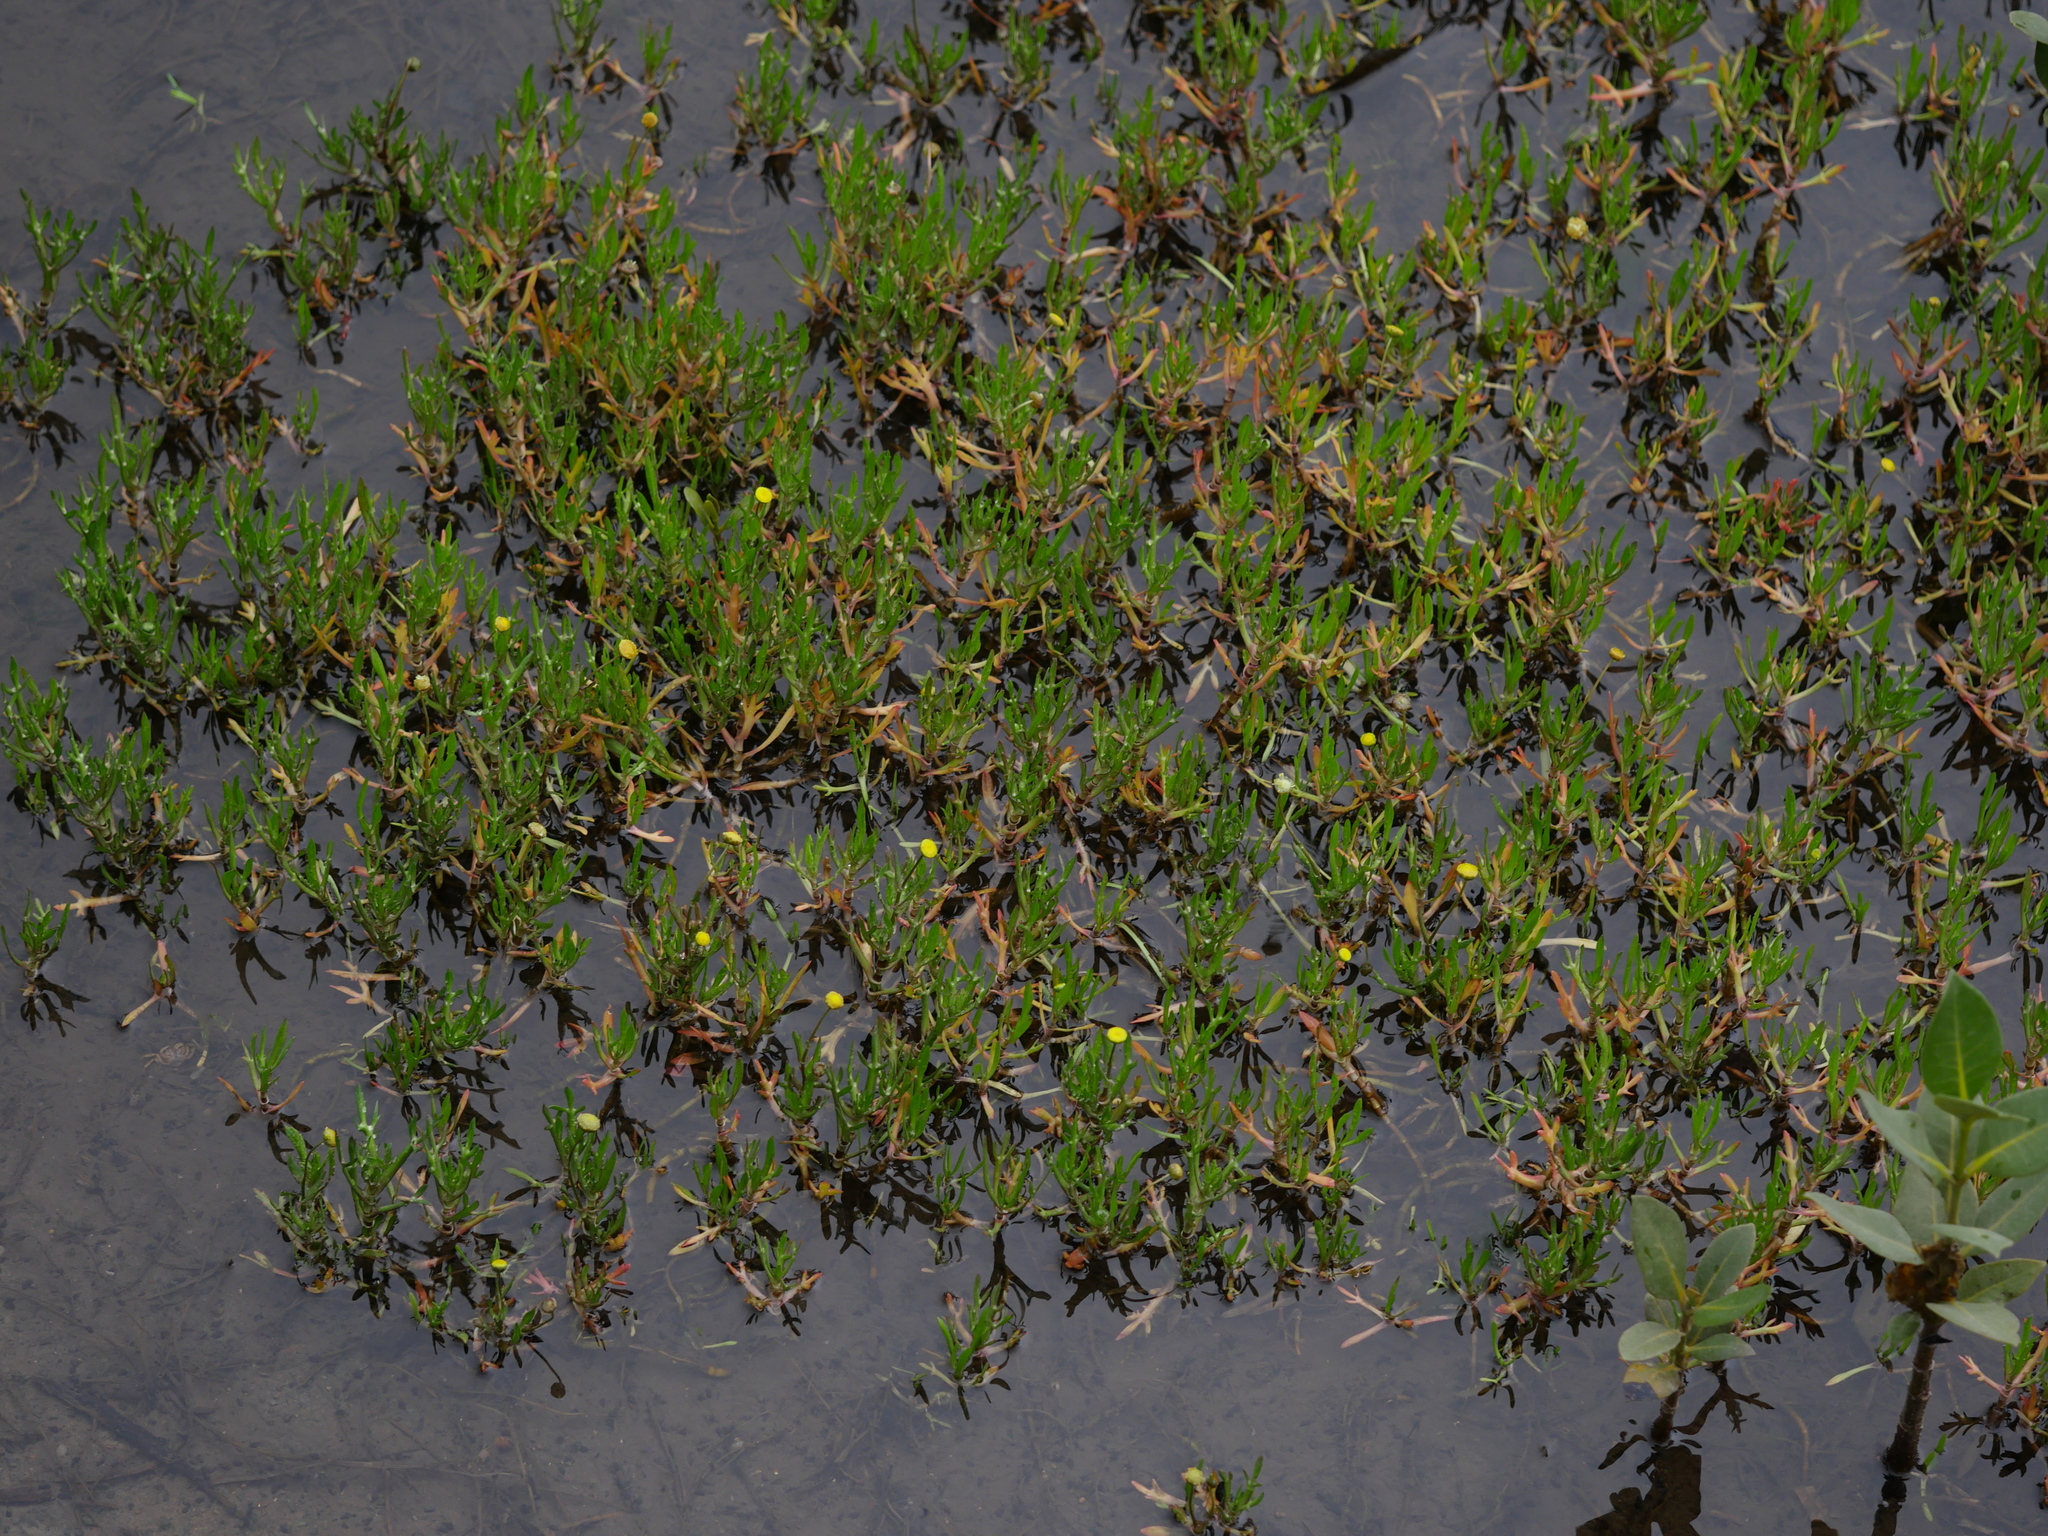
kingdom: Plantae
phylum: Tracheophyta
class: Magnoliopsida
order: Asterales
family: Asteraceae
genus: Cotula
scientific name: Cotula coronopifolia
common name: Buttonweed
